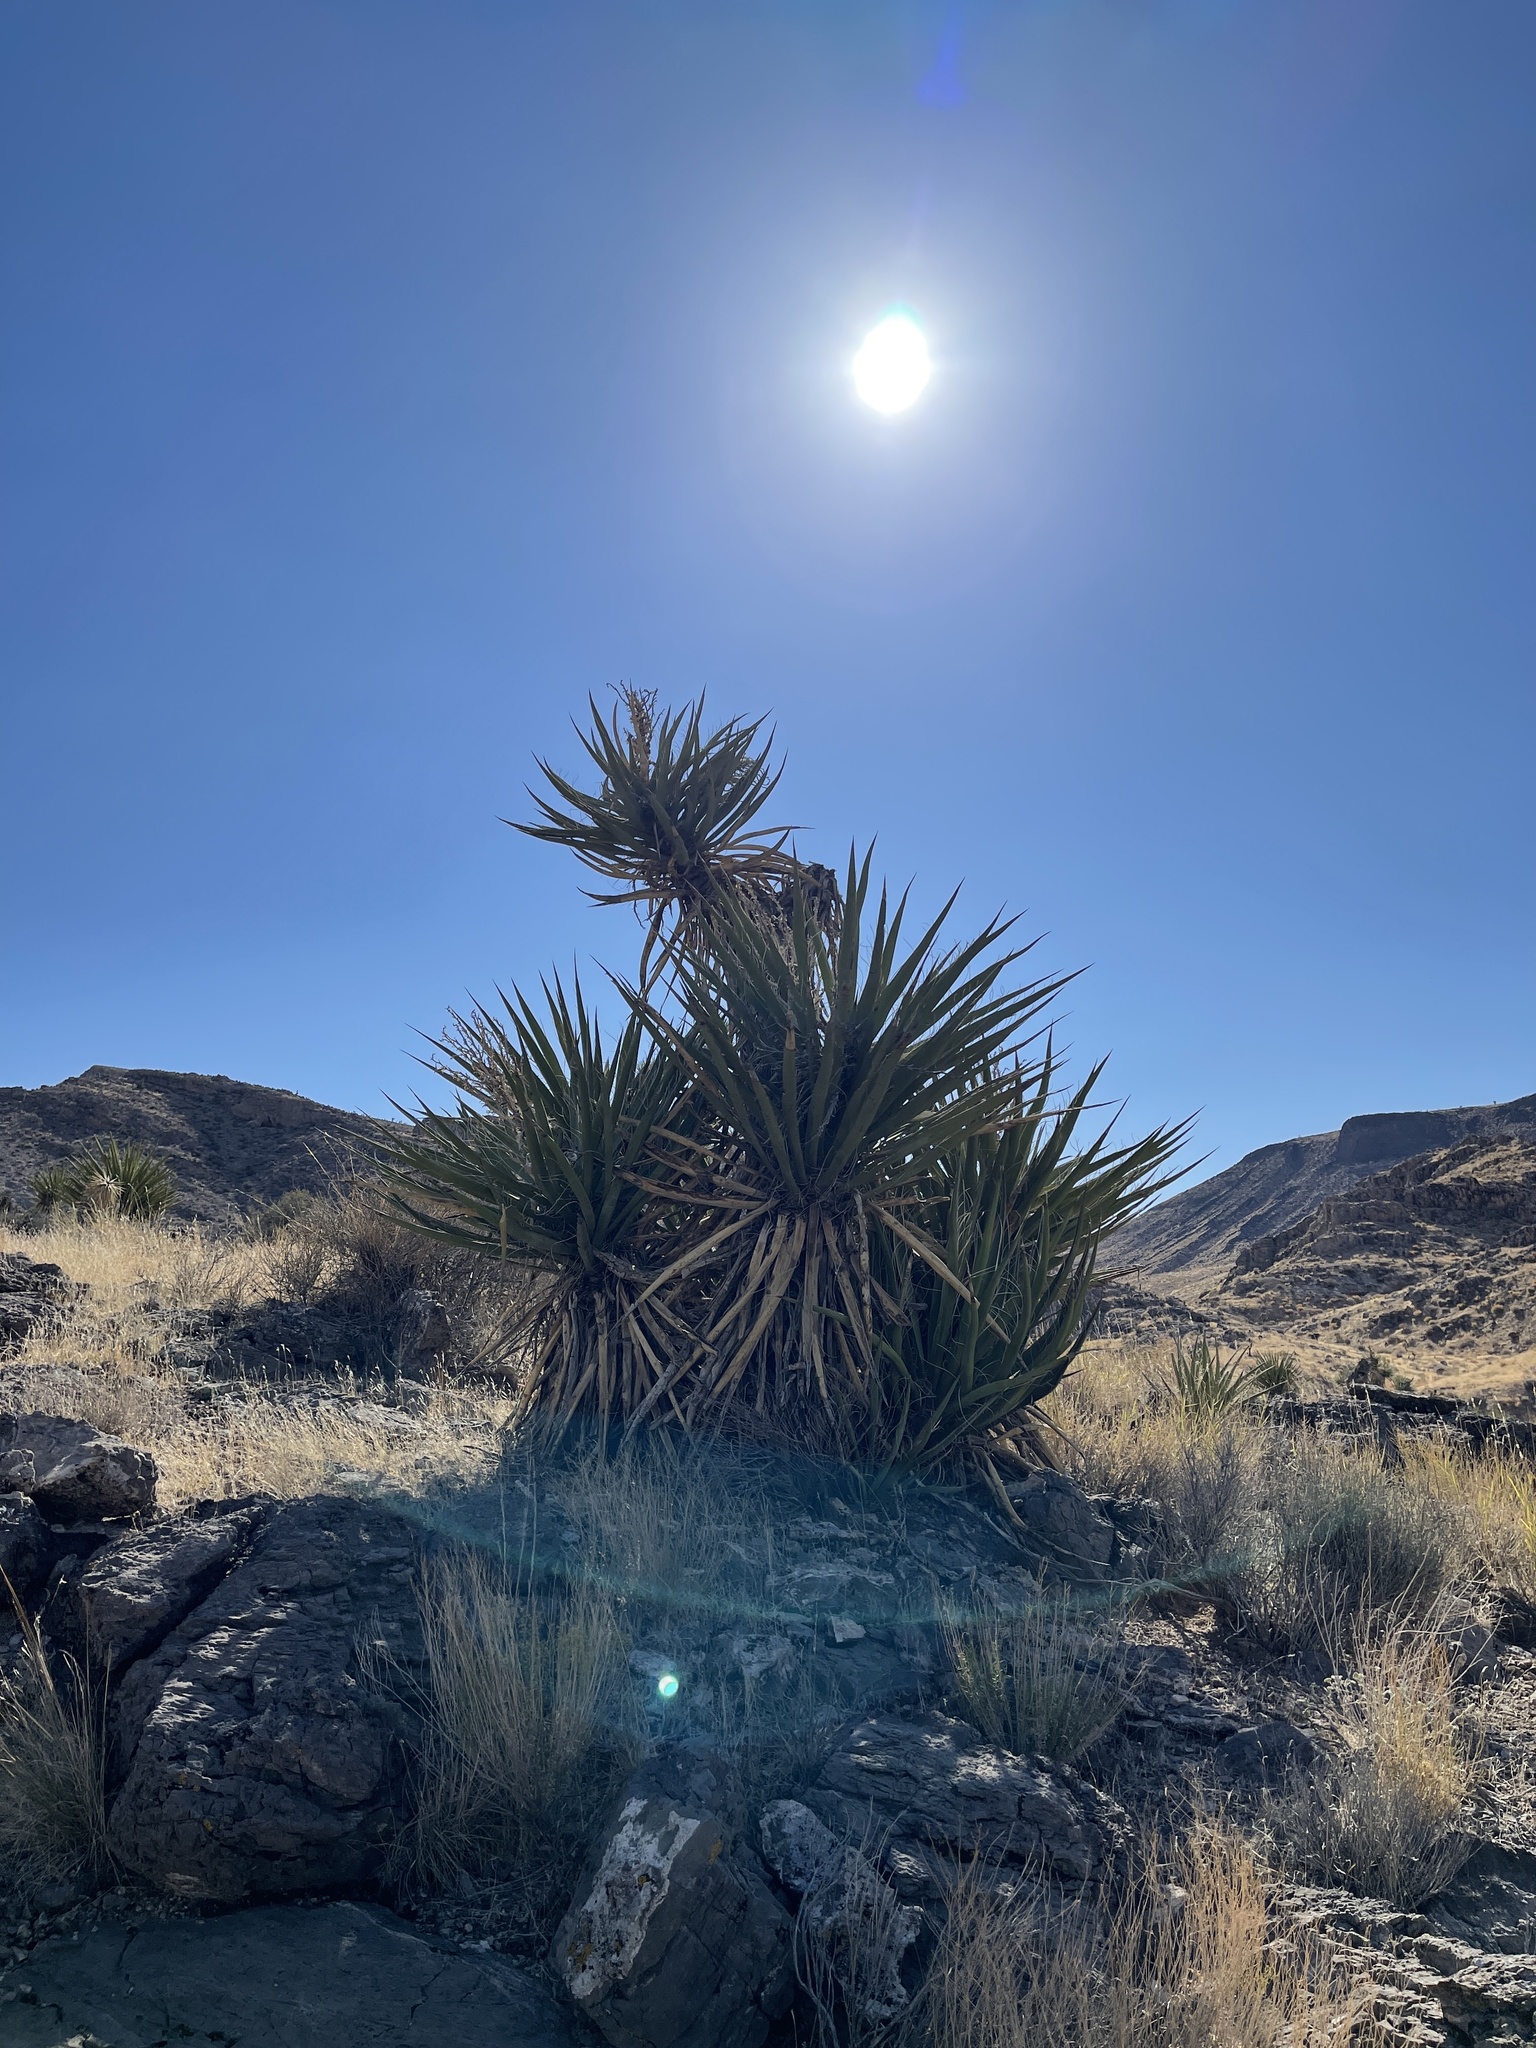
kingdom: Plantae
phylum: Tracheophyta
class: Liliopsida
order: Asparagales
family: Asparagaceae
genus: Yucca
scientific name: Yucca schidigera
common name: Mojave yucca
